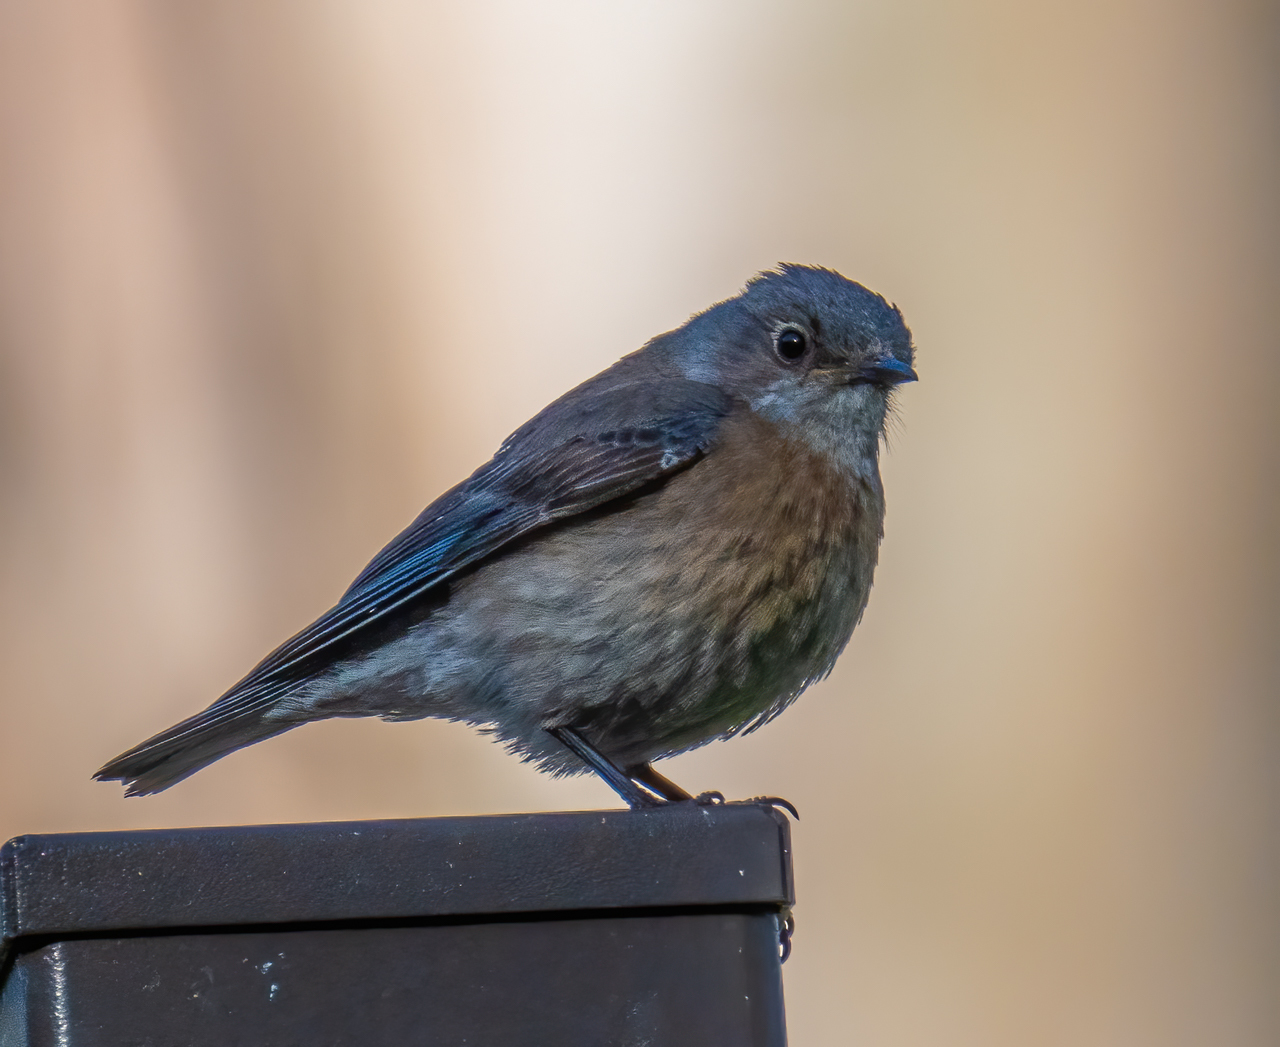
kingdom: Animalia
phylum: Chordata
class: Aves
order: Passeriformes
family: Turdidae
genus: Sialia
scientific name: Sialia mexicana
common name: Western bluebird
